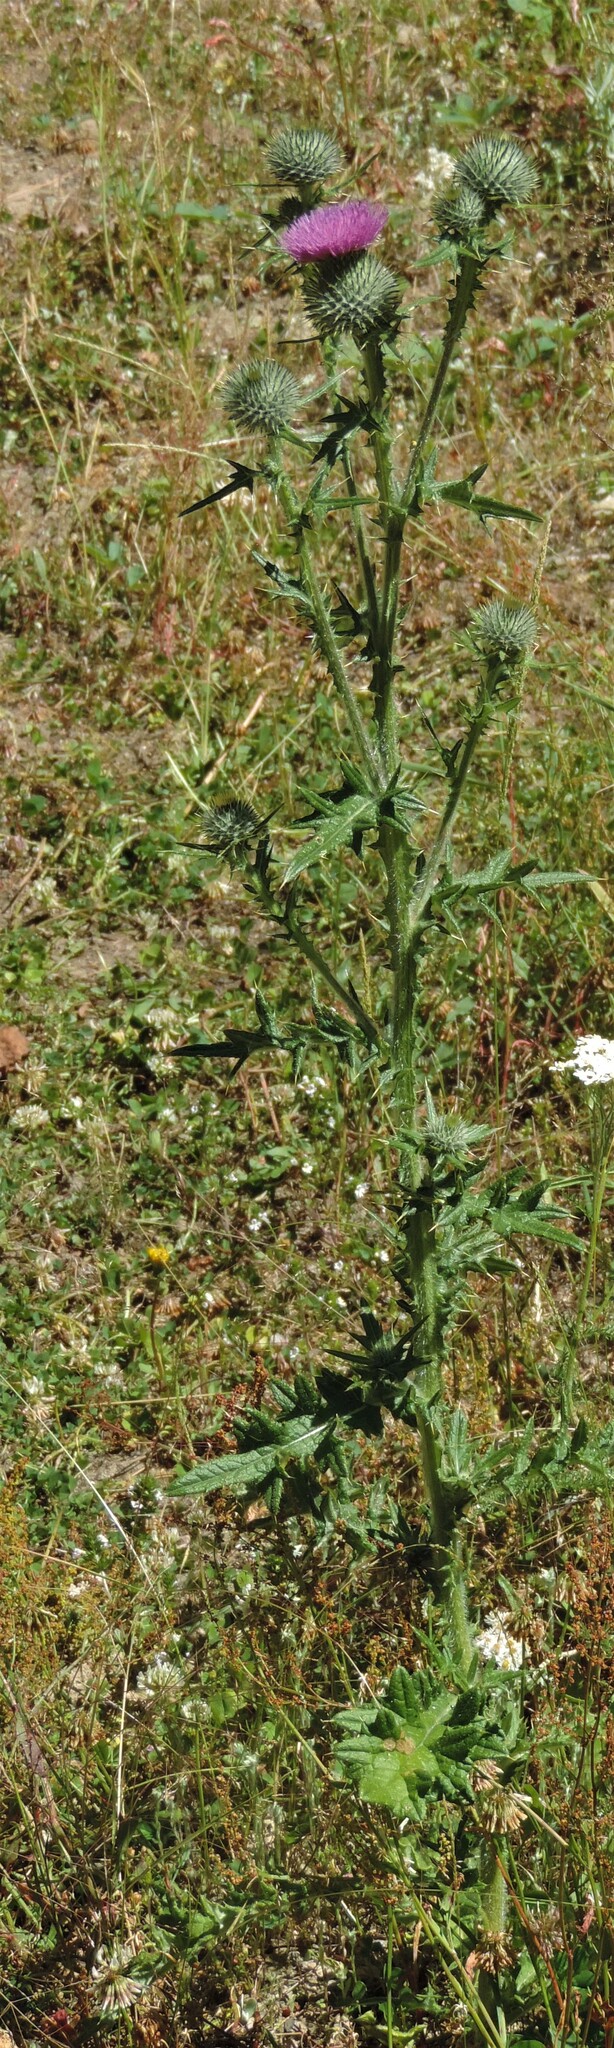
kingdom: Plantae
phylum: Tracheophyta
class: Magnoliopsida
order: Asterales
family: Asteraceae
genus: Cirsium
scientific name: Cirsium vulgare
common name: Bull thistle
